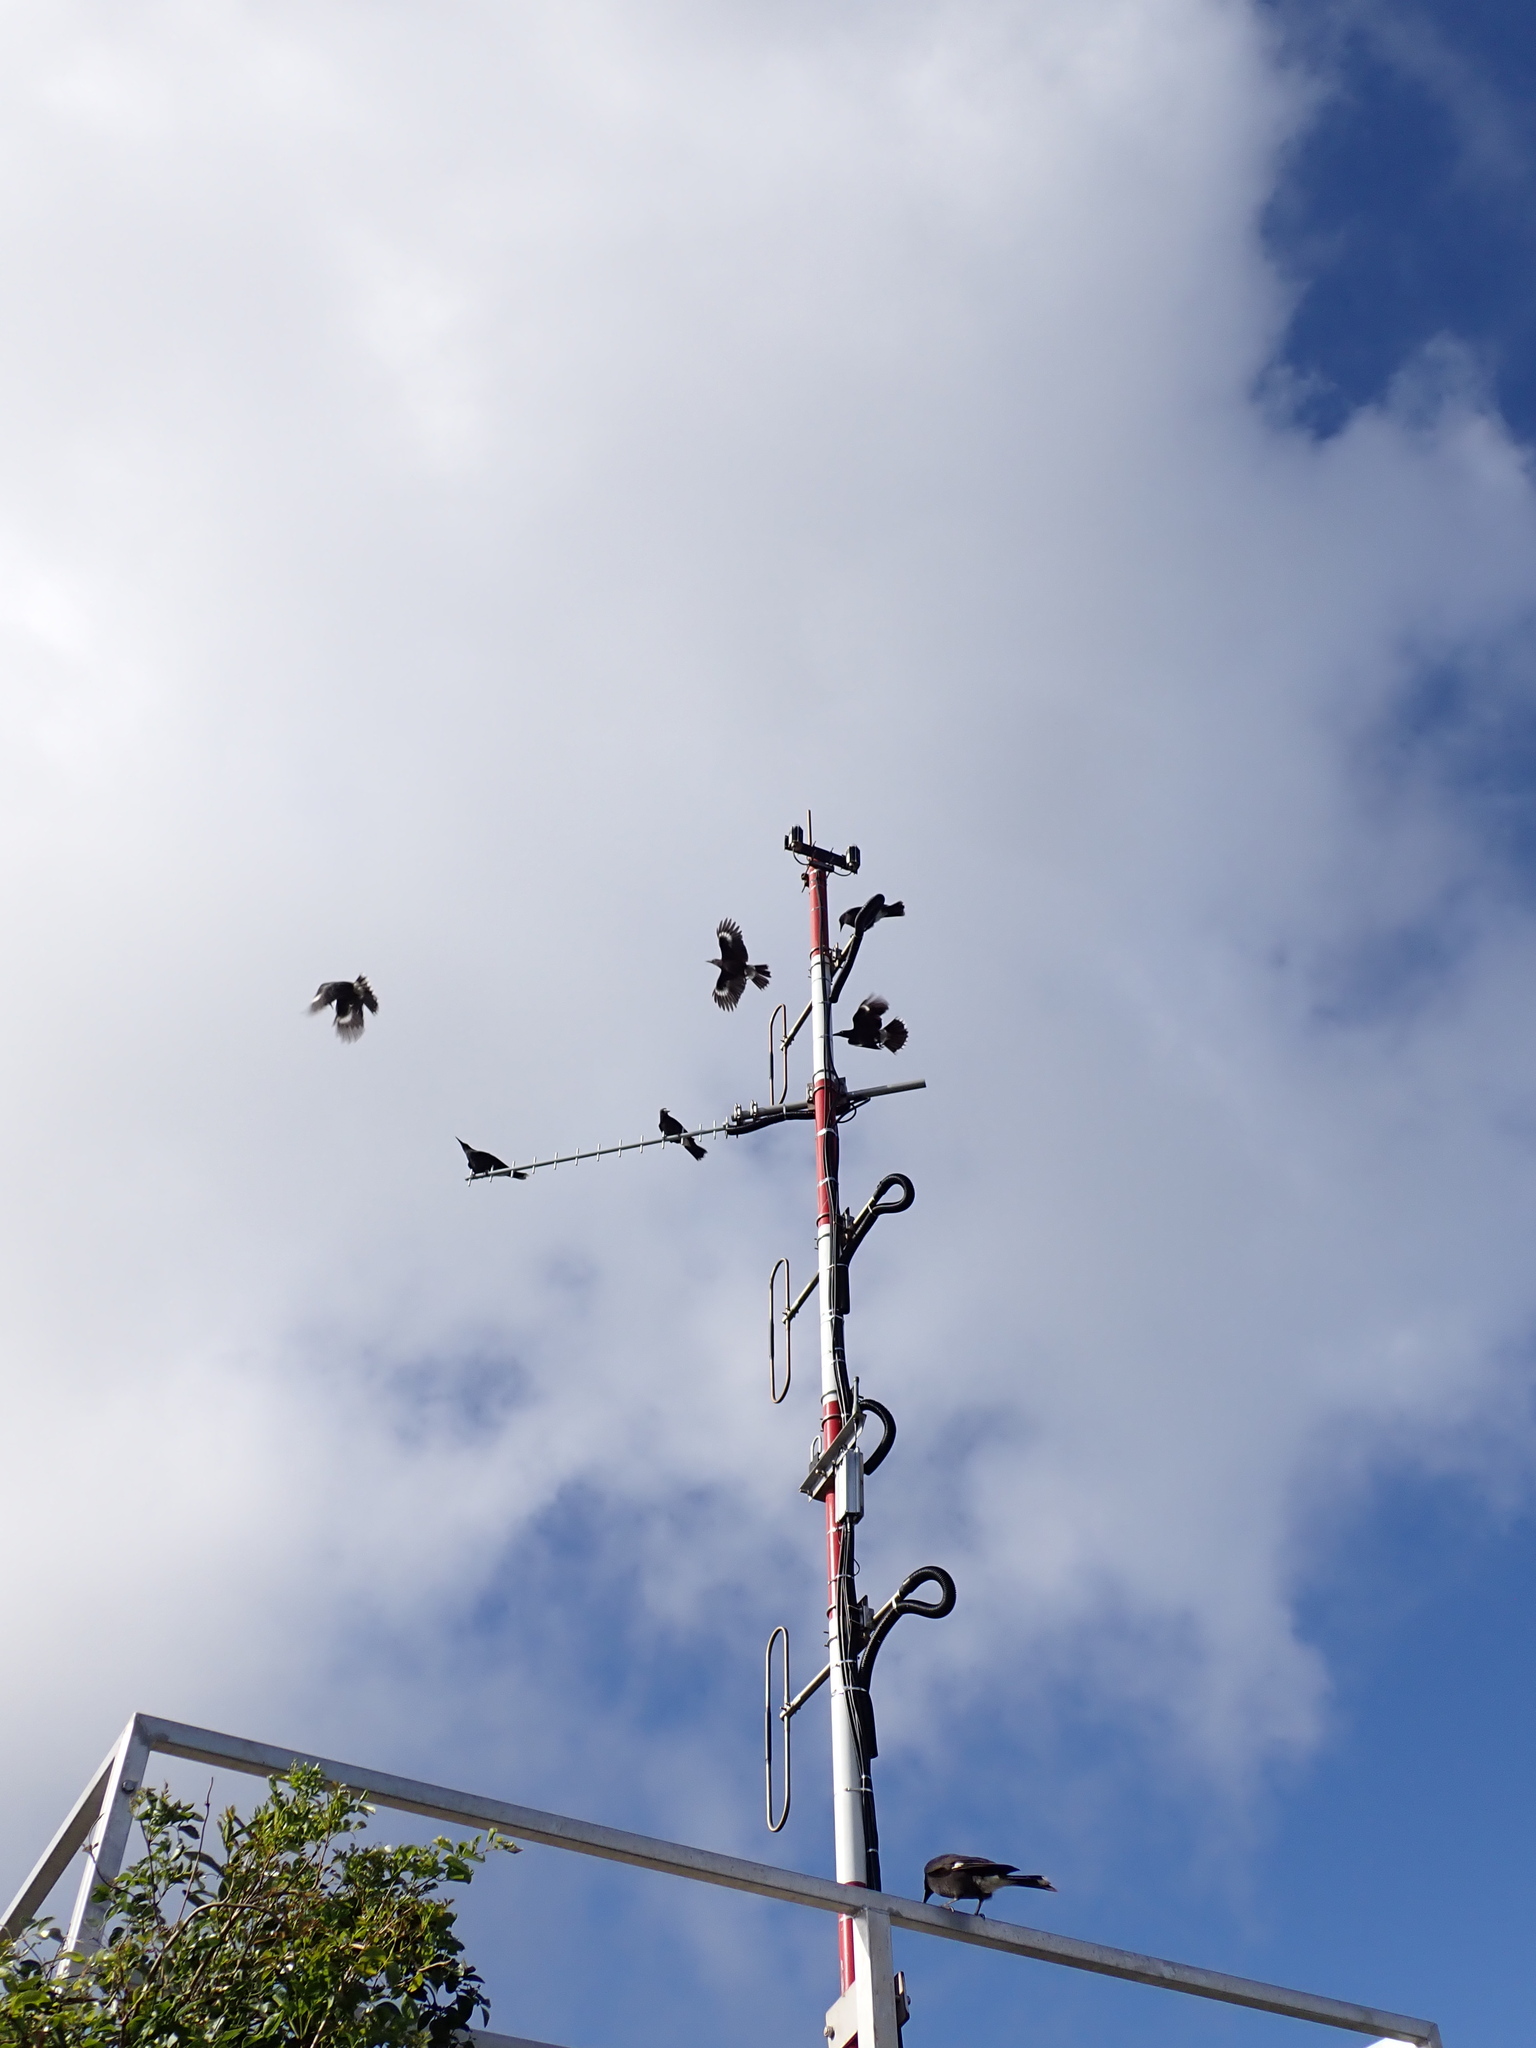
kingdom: Animalia
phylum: Chordata
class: Aves
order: Passeriformes
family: Cracticidae
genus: Strepera
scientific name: Strepera graculina
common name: Pied currawong
